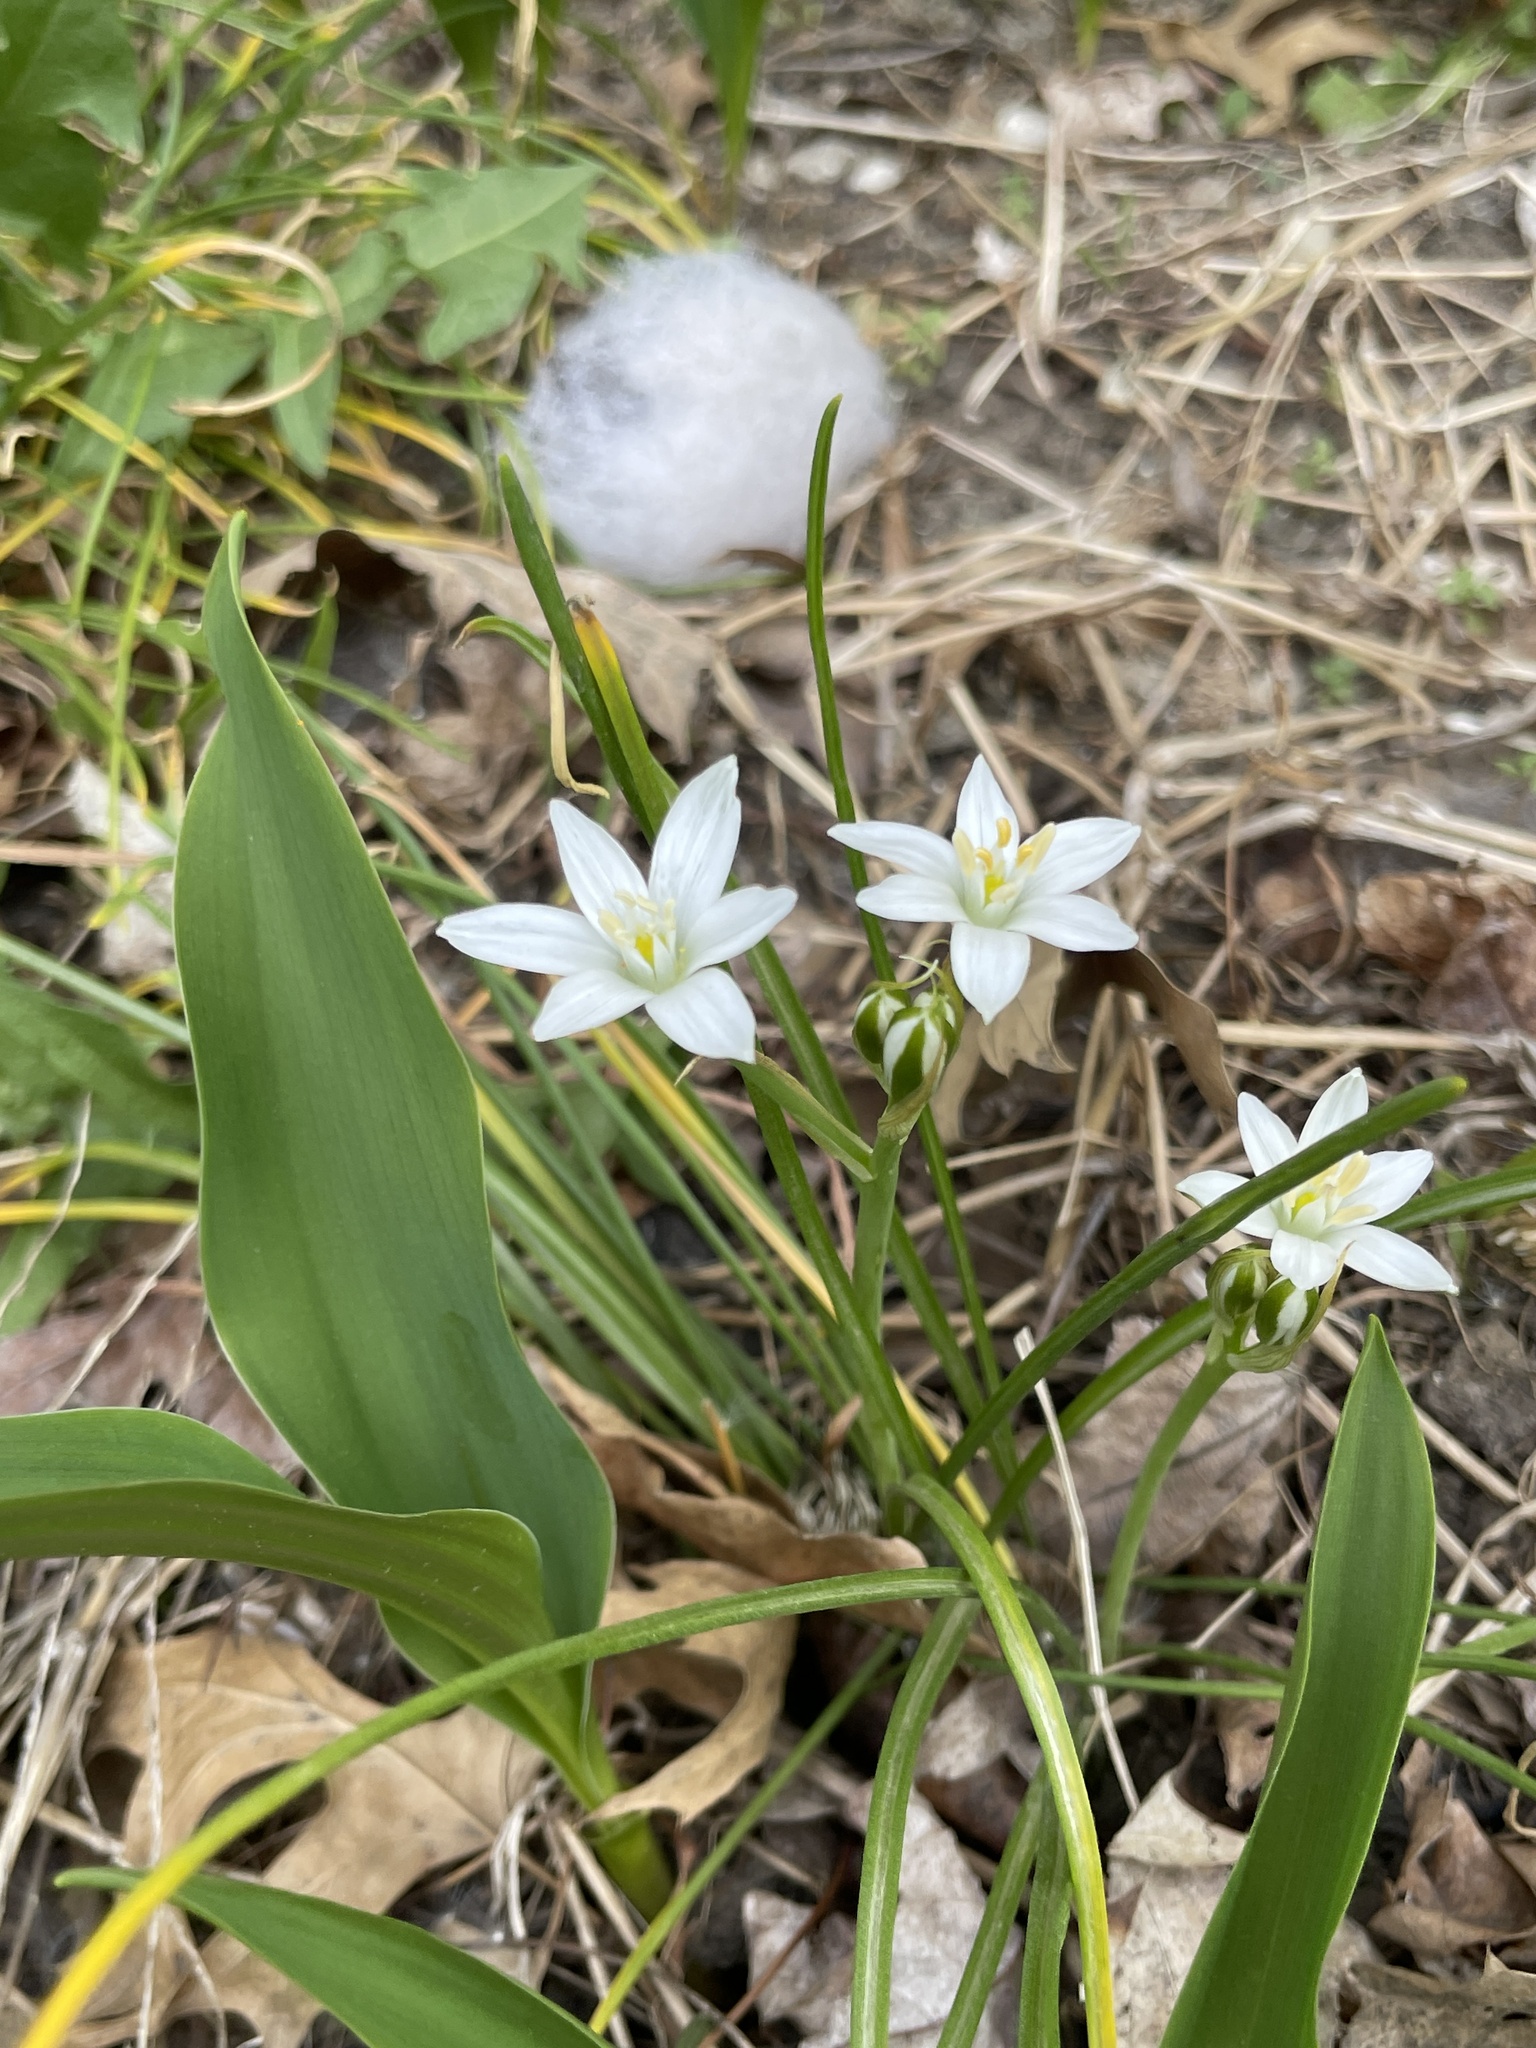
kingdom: Plantae
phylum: Tracheophyta
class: Liliopsida
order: Asparagales
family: Asparagaceae
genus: Ornithogalum
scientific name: Ornithogalum umbellatum
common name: Garden star-of-bethlehem
